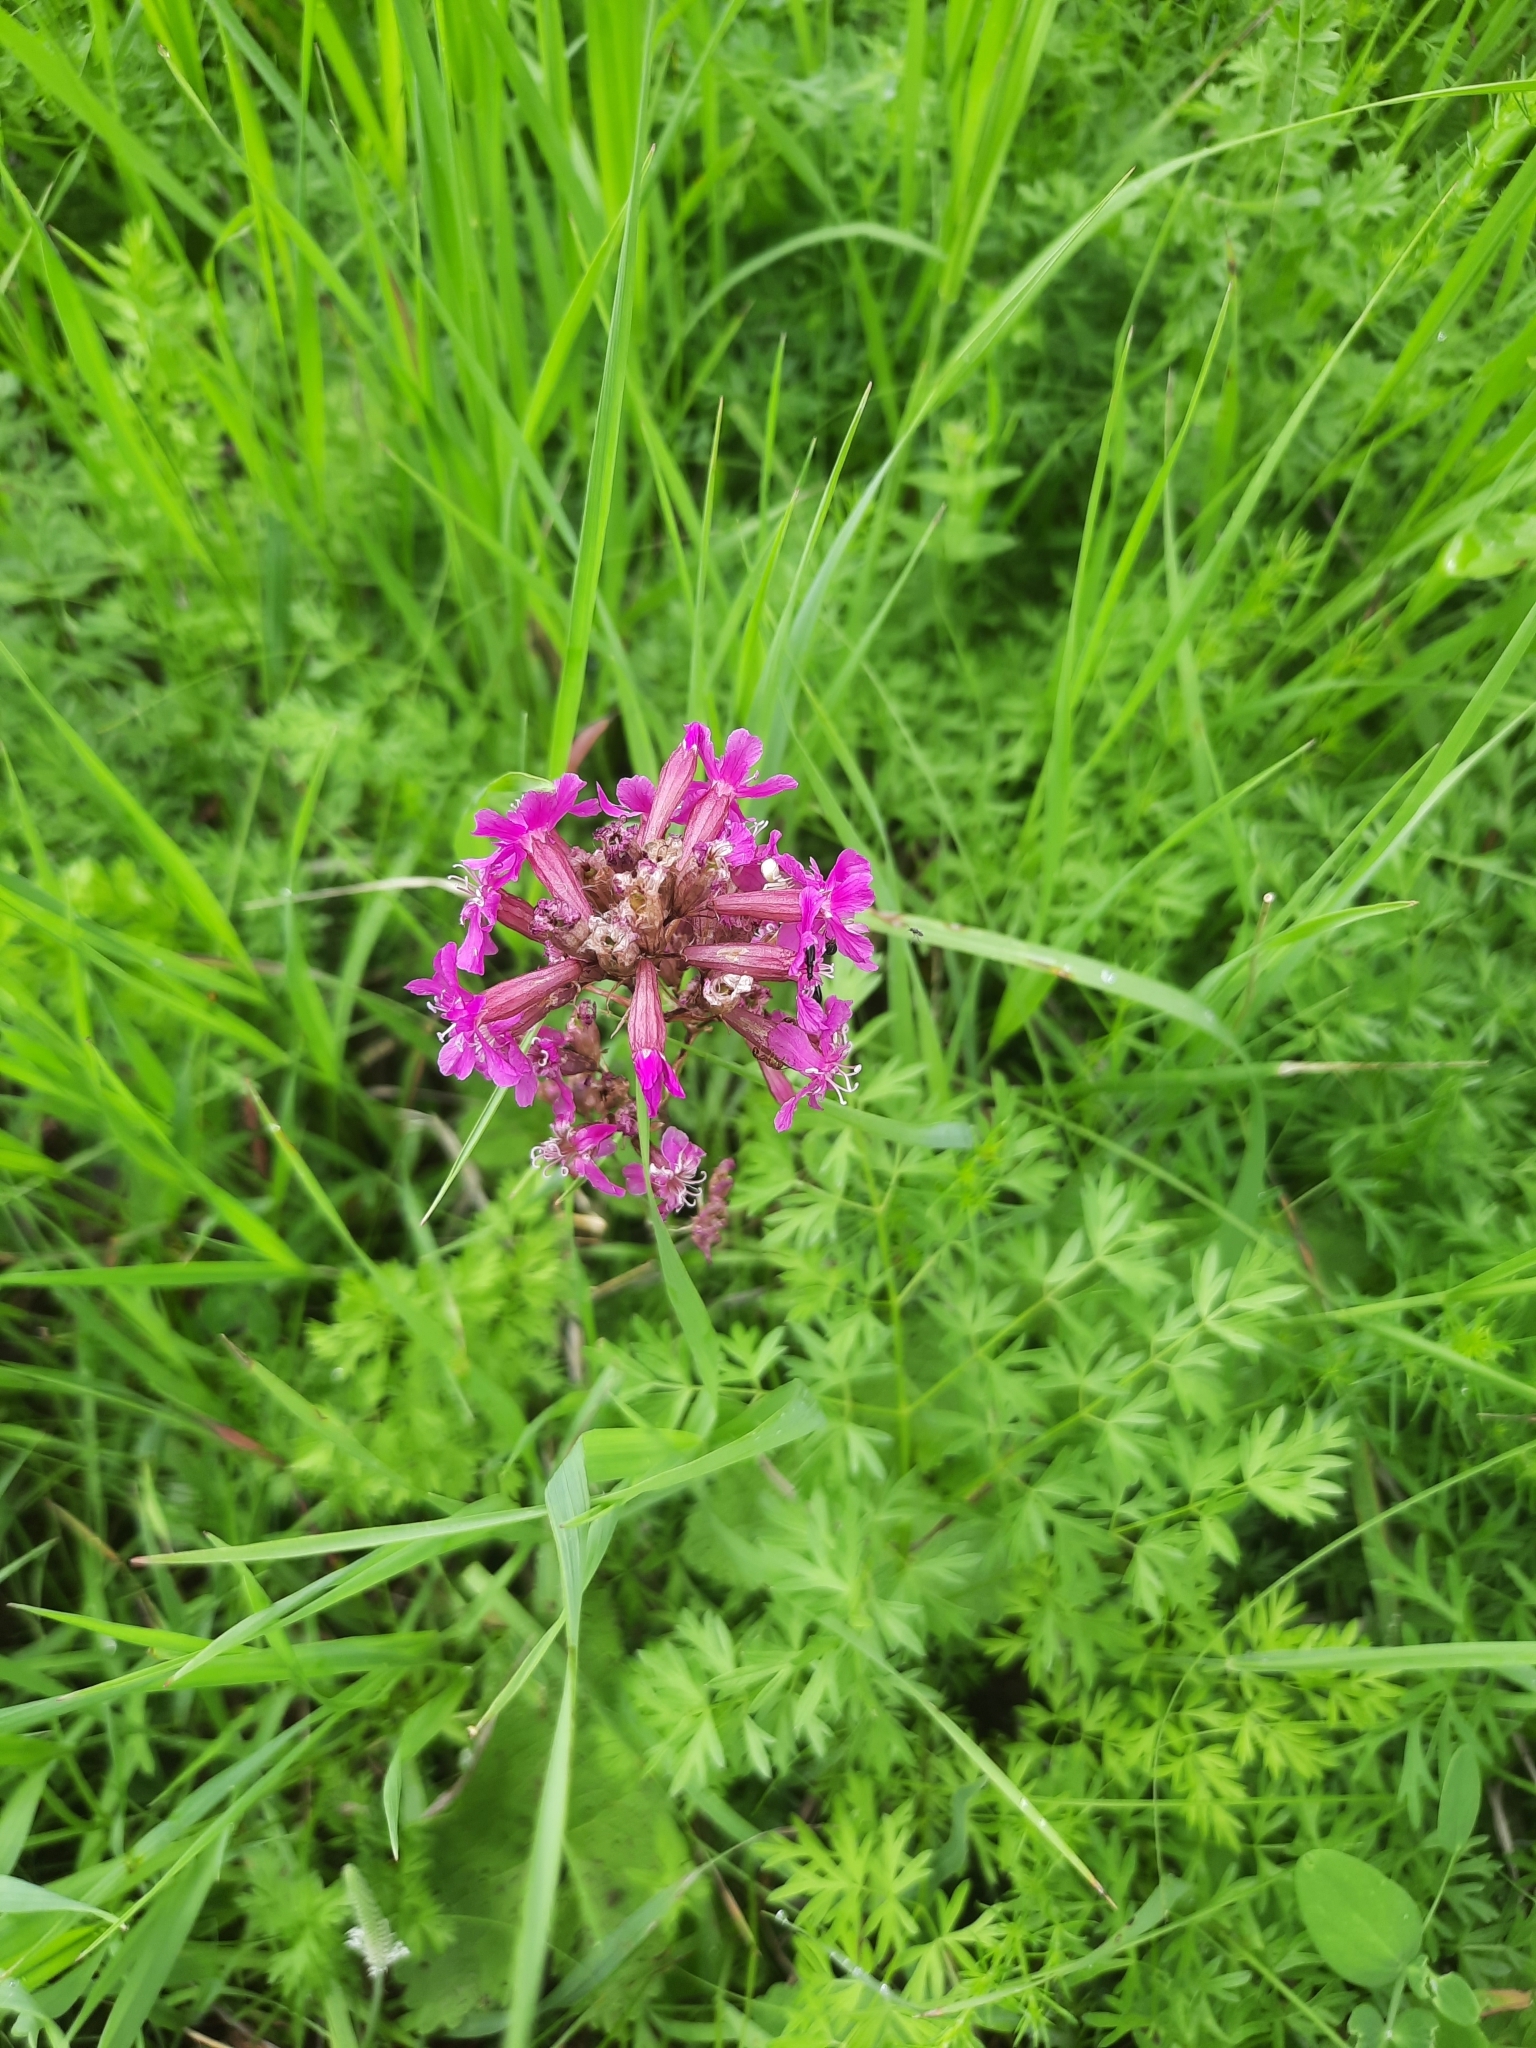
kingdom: Plantae
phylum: Tracheophyta
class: Magnoliopsida
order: Caryophyllales
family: Caryophyllaceae
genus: Viscaria
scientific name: Viscaria vulgaris
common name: Clammy campion
